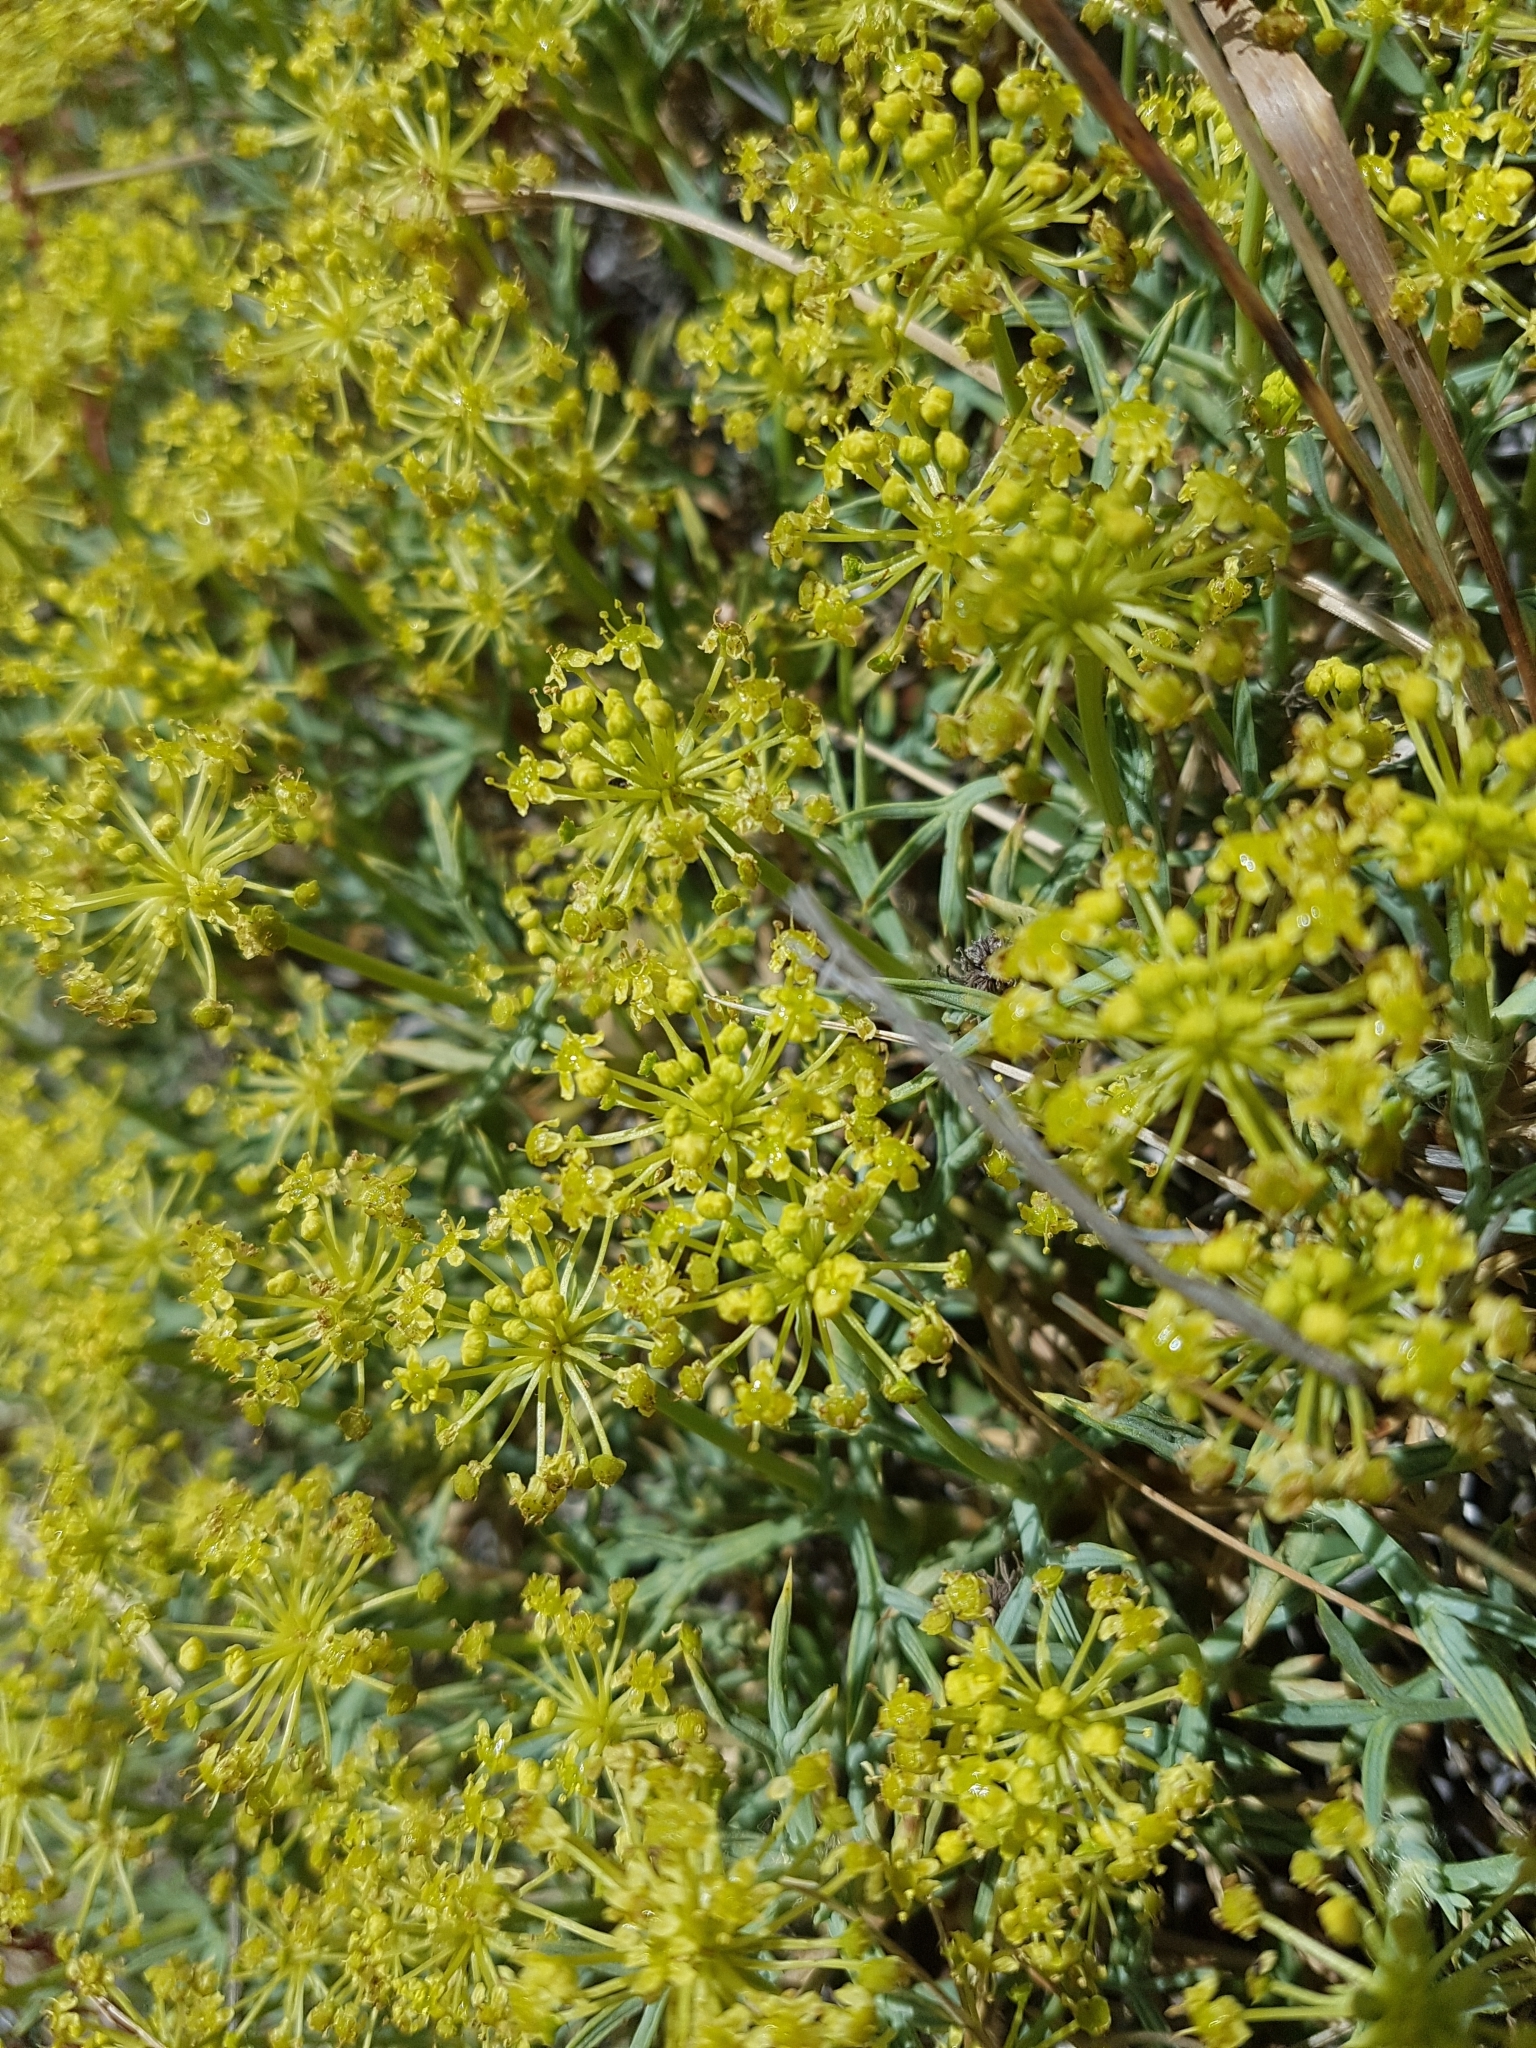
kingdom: Plantae
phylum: Tracheophyta
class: Magnoliopsida
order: Apiales
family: Apiaceae
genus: Azorella
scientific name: Azorella prolifera
